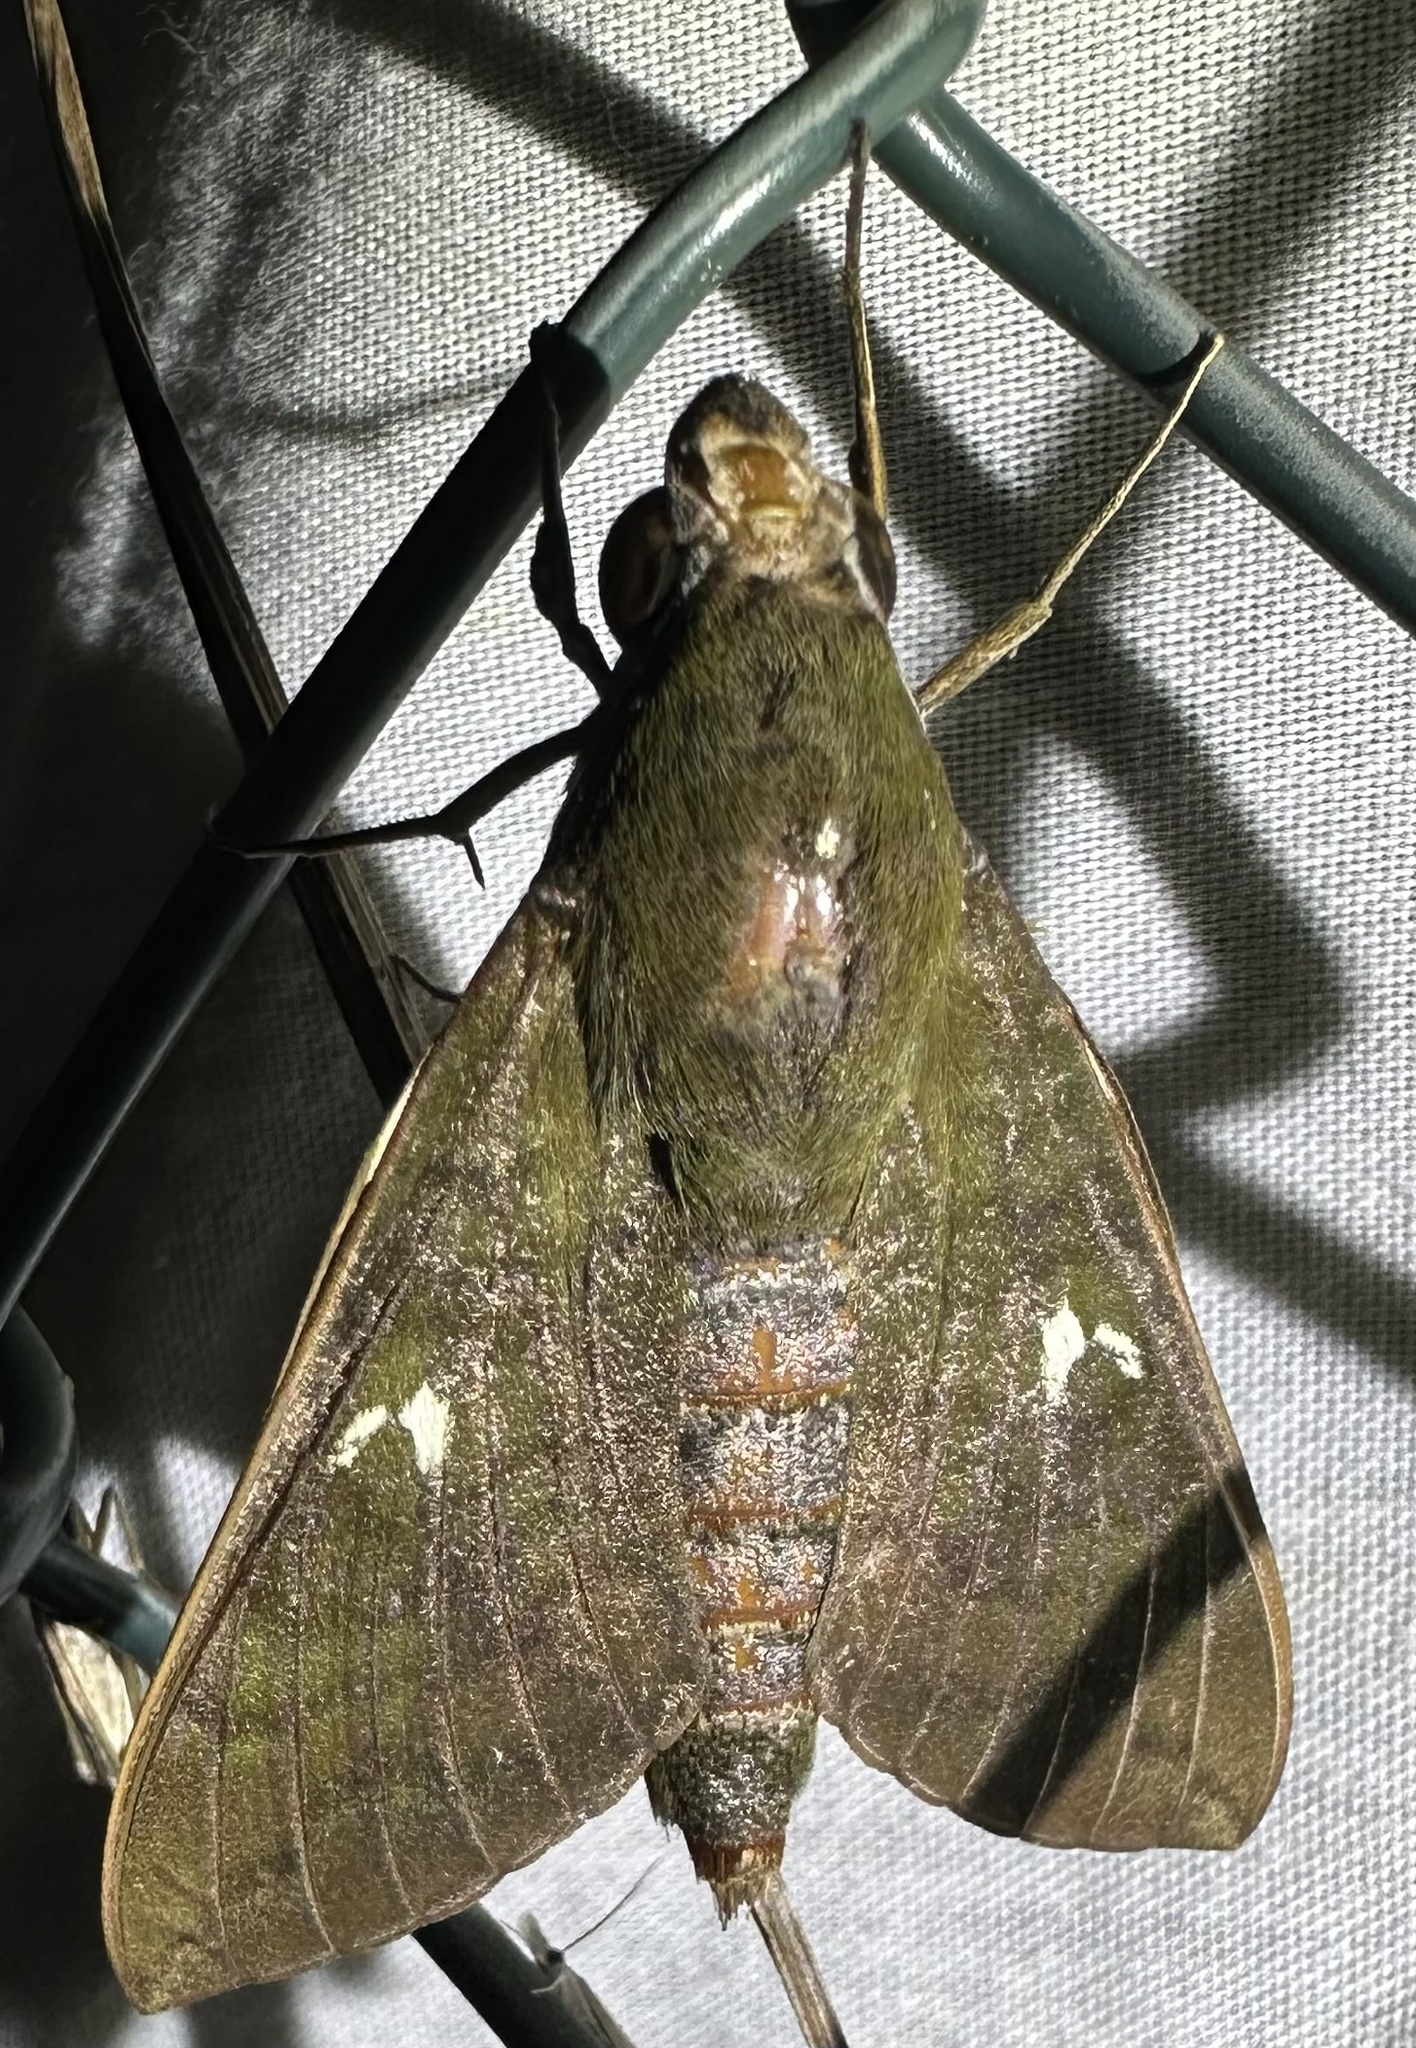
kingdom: Animalia
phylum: Arthropoda
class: Insecta
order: Lepidoptera
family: Sphingidae
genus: Nephele
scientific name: Nephele accentifera
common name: Accented hawk-moth
